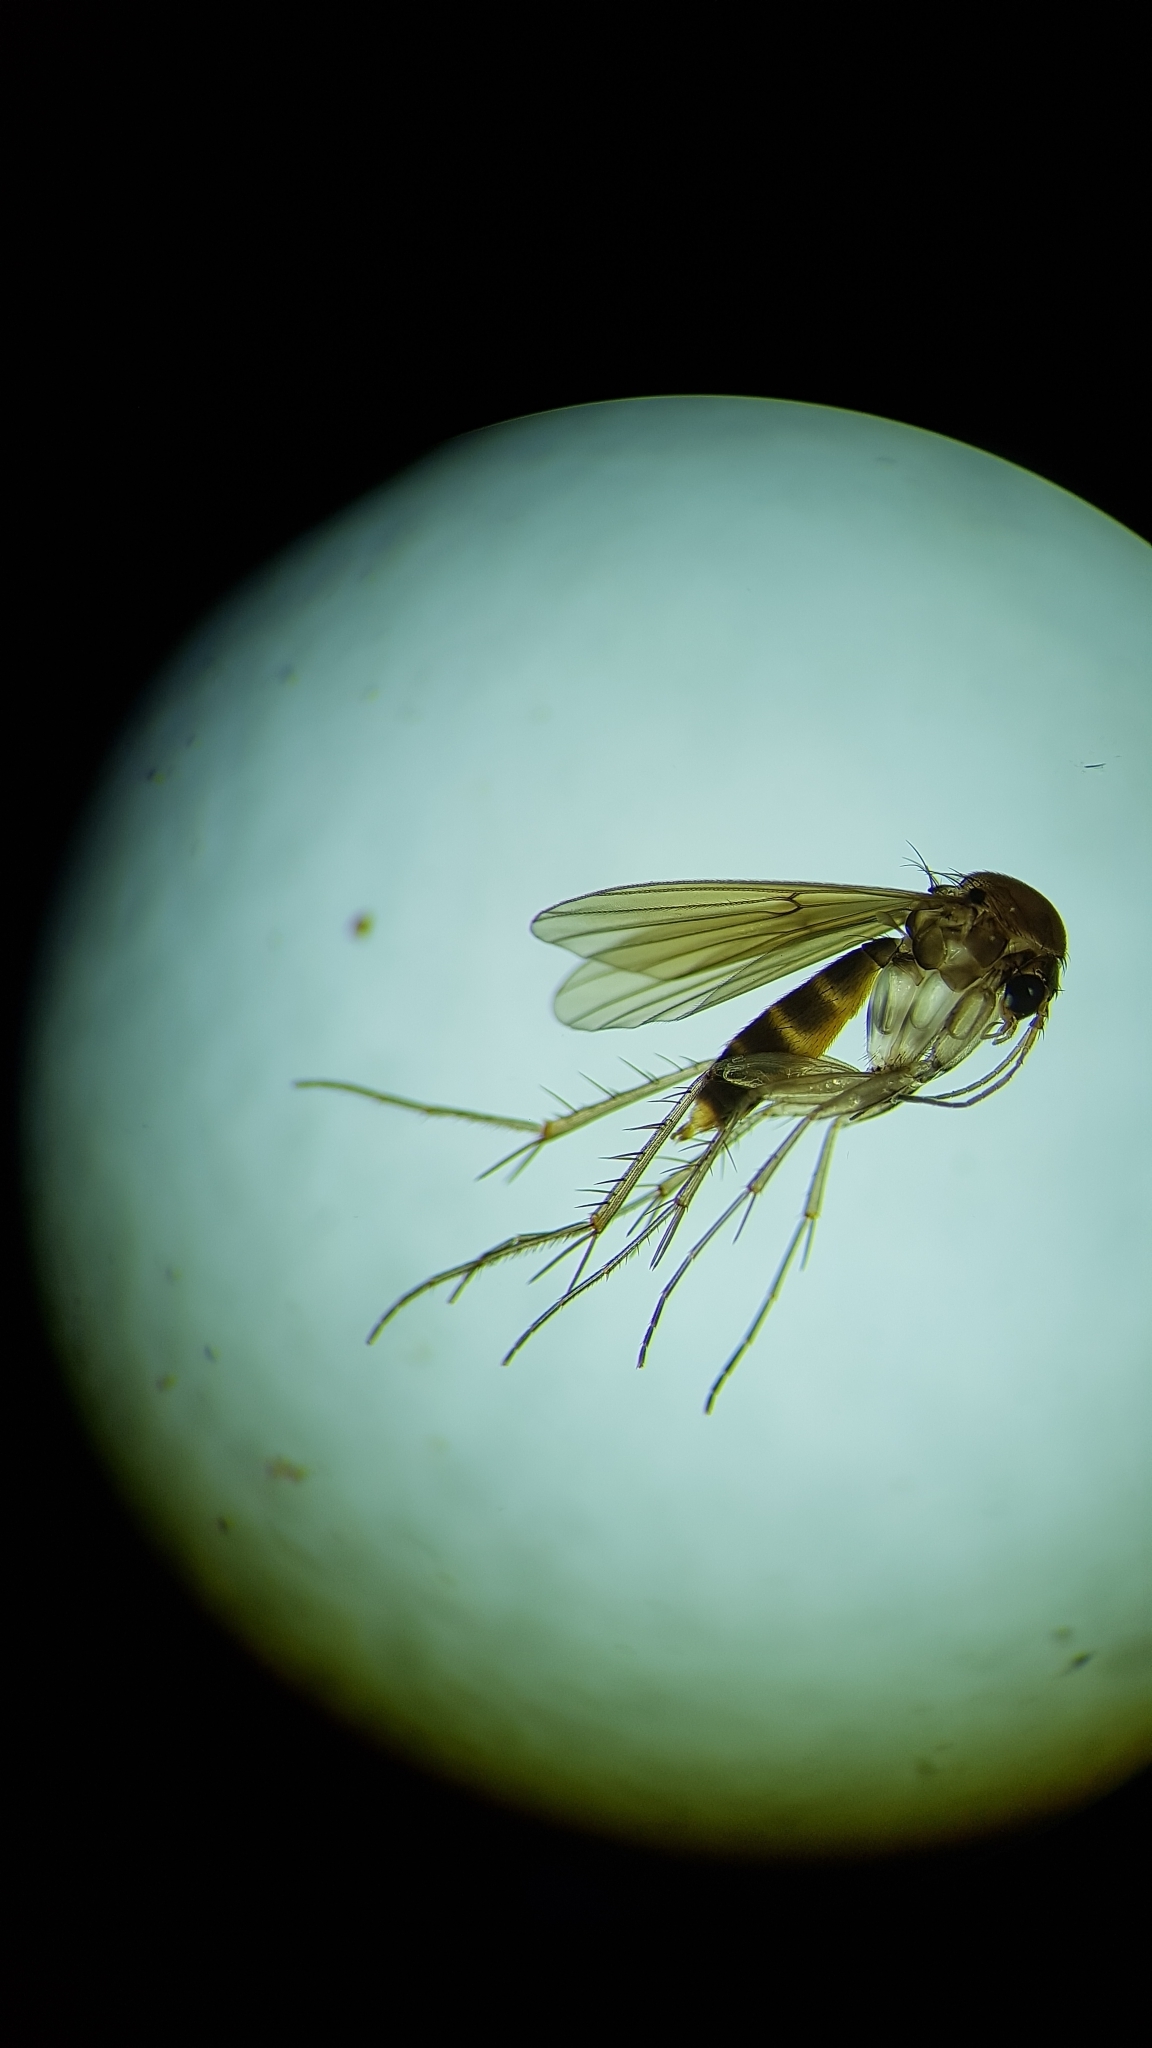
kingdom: Animalia
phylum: Arthropoda
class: Insecta
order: Diptera
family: Mycetophilidae
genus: Mycetophila
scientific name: Mycetophila filicronis
